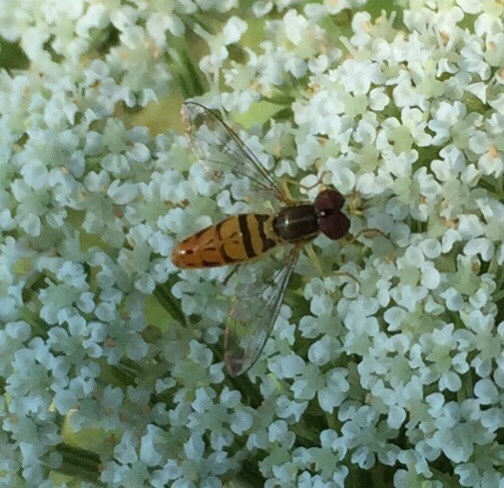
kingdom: Animalia
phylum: Arthropoda
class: Insecta
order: Diptera
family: Syrphidae
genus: Toxomerus
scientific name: Toxomerus marginatus
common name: Syrphid fly
